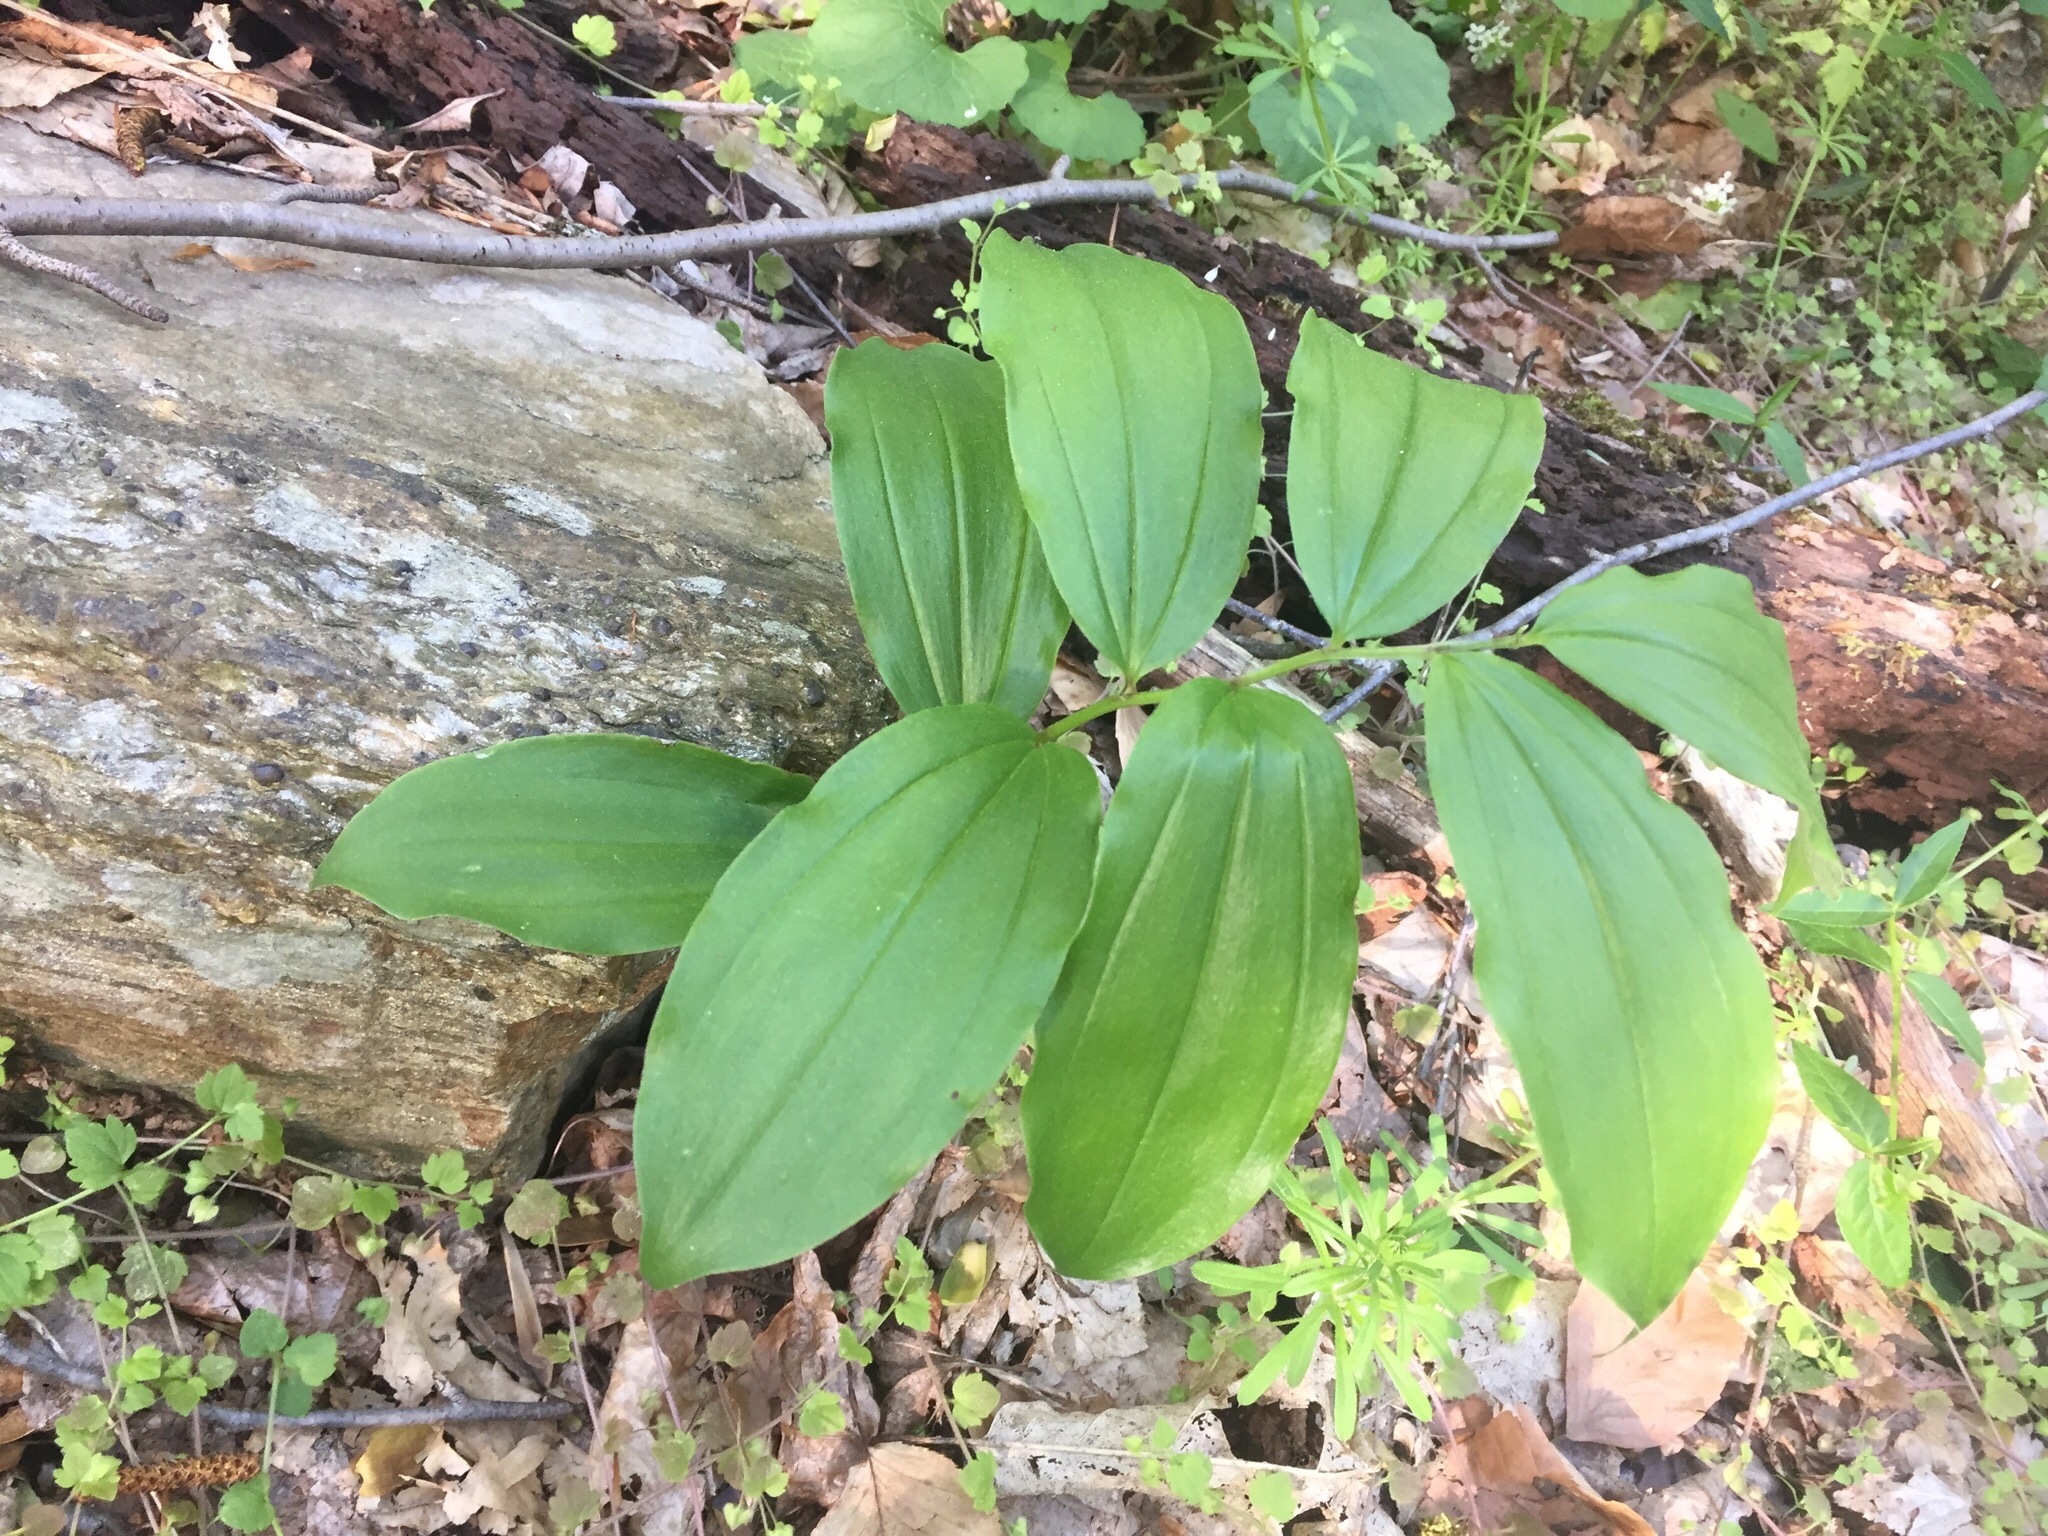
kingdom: Plantae
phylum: Tracheophyta
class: Liliopsida
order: Asparagales
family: Asparagaceae
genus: Maianthemum
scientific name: Maianthemum racemosum
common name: False spikenard
